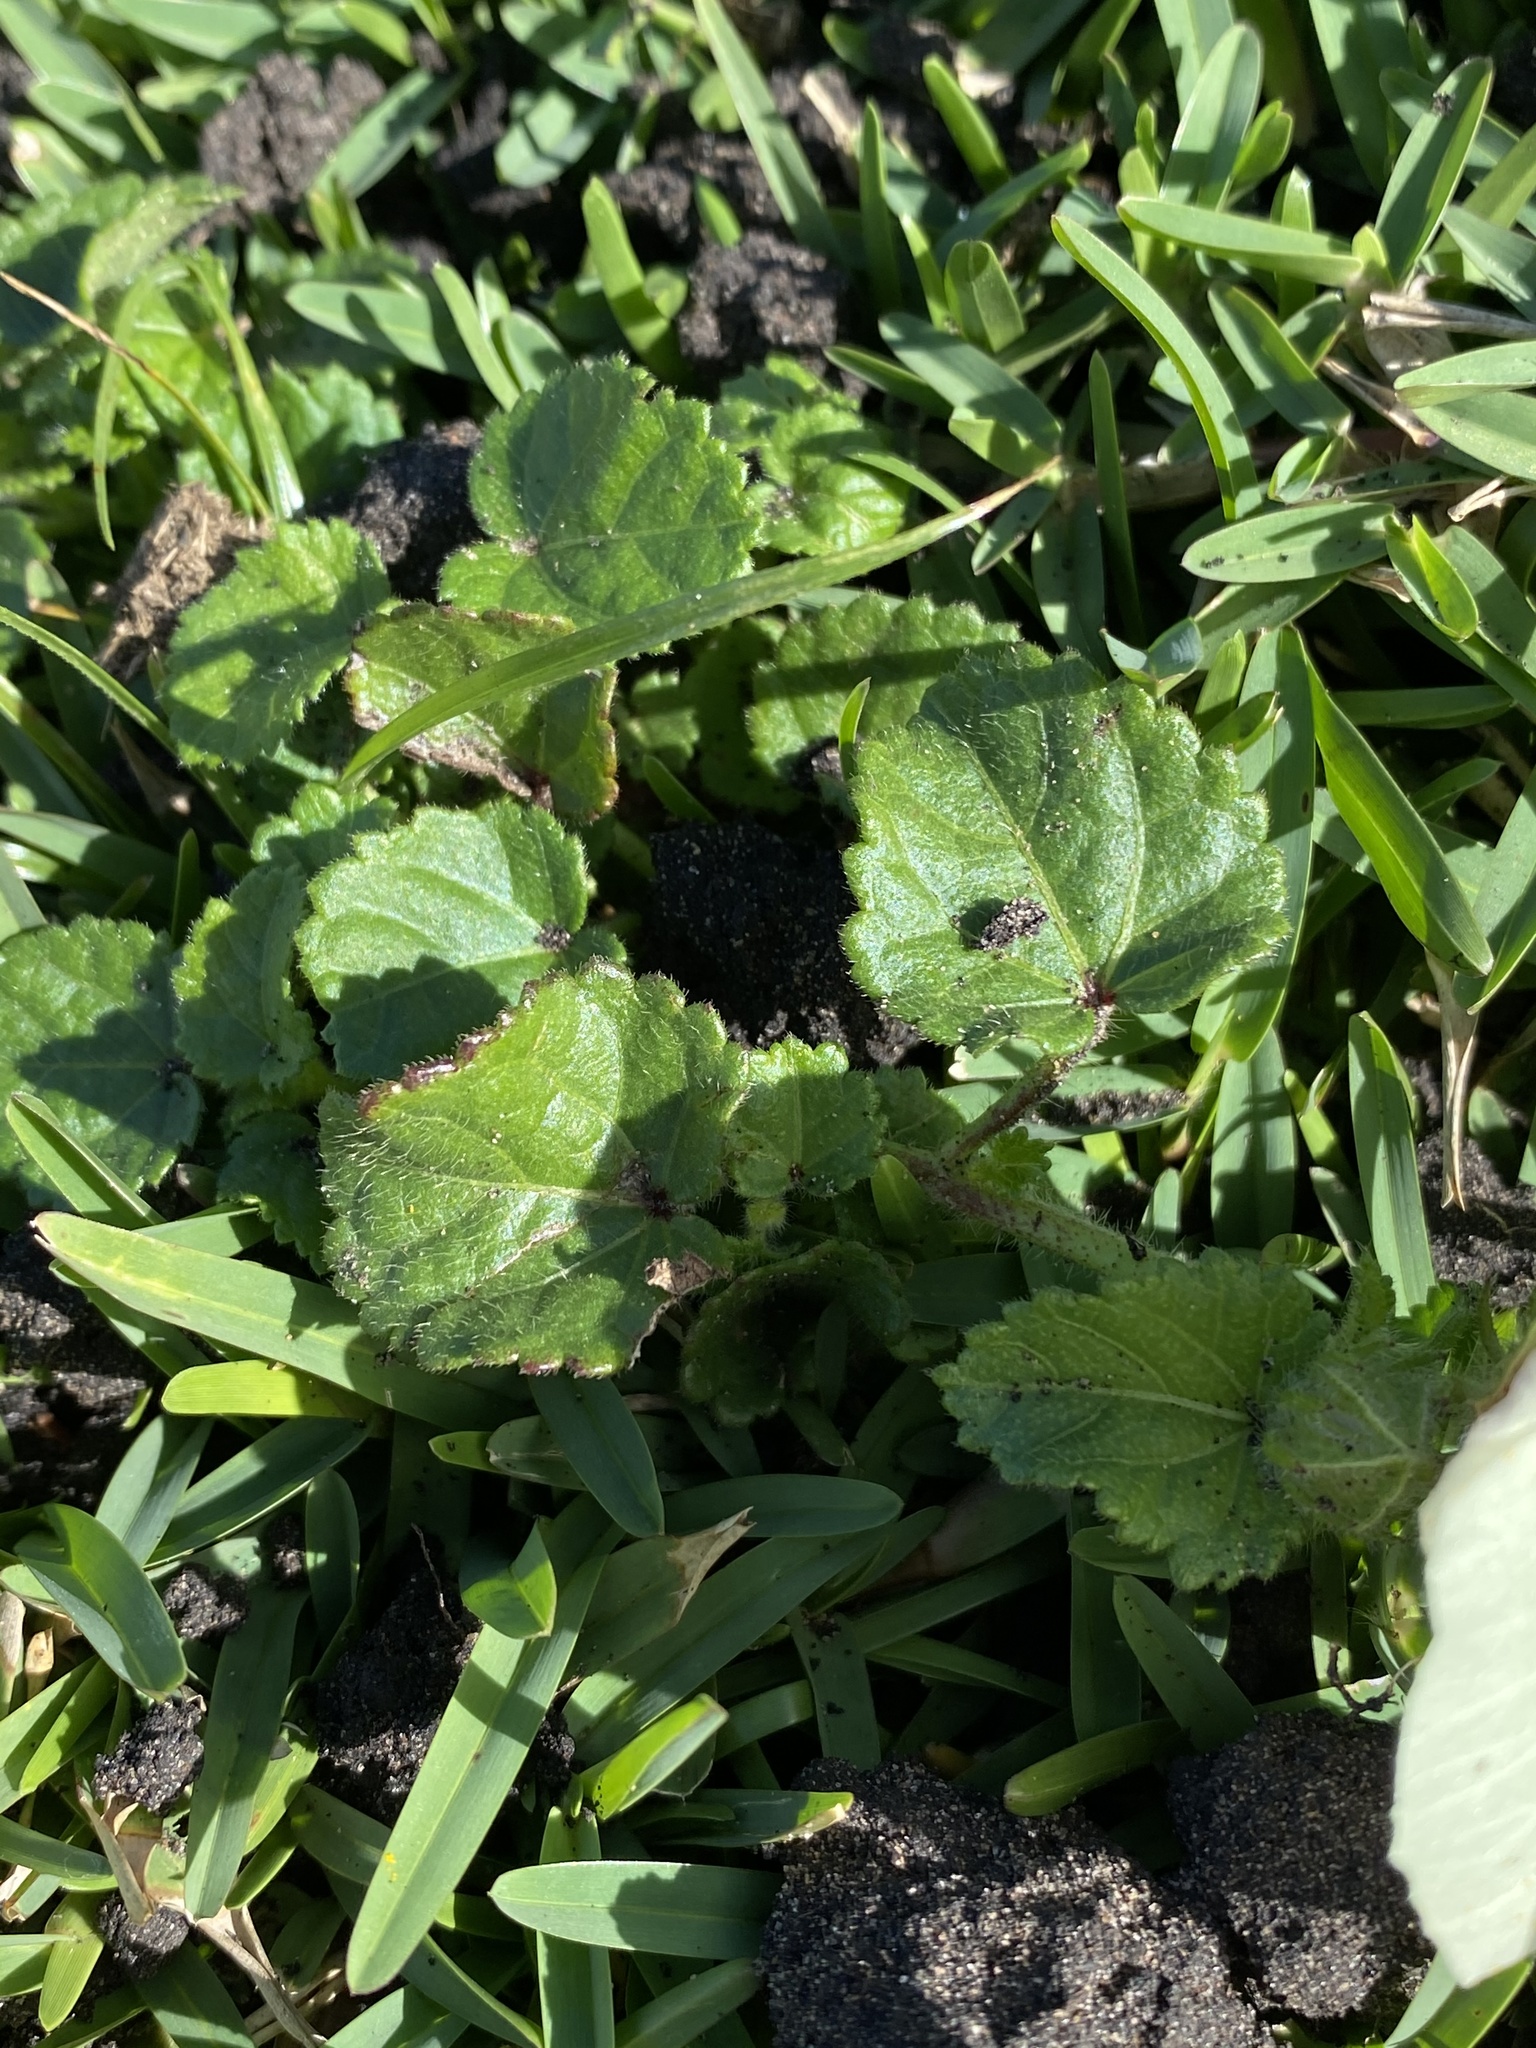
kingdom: Plantae
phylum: Tracheophyta
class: Magnoliopsida
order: Malvales
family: Malvaceae
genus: Hibiscus
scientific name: Hibiscus trionum
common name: Bladder ketmia
